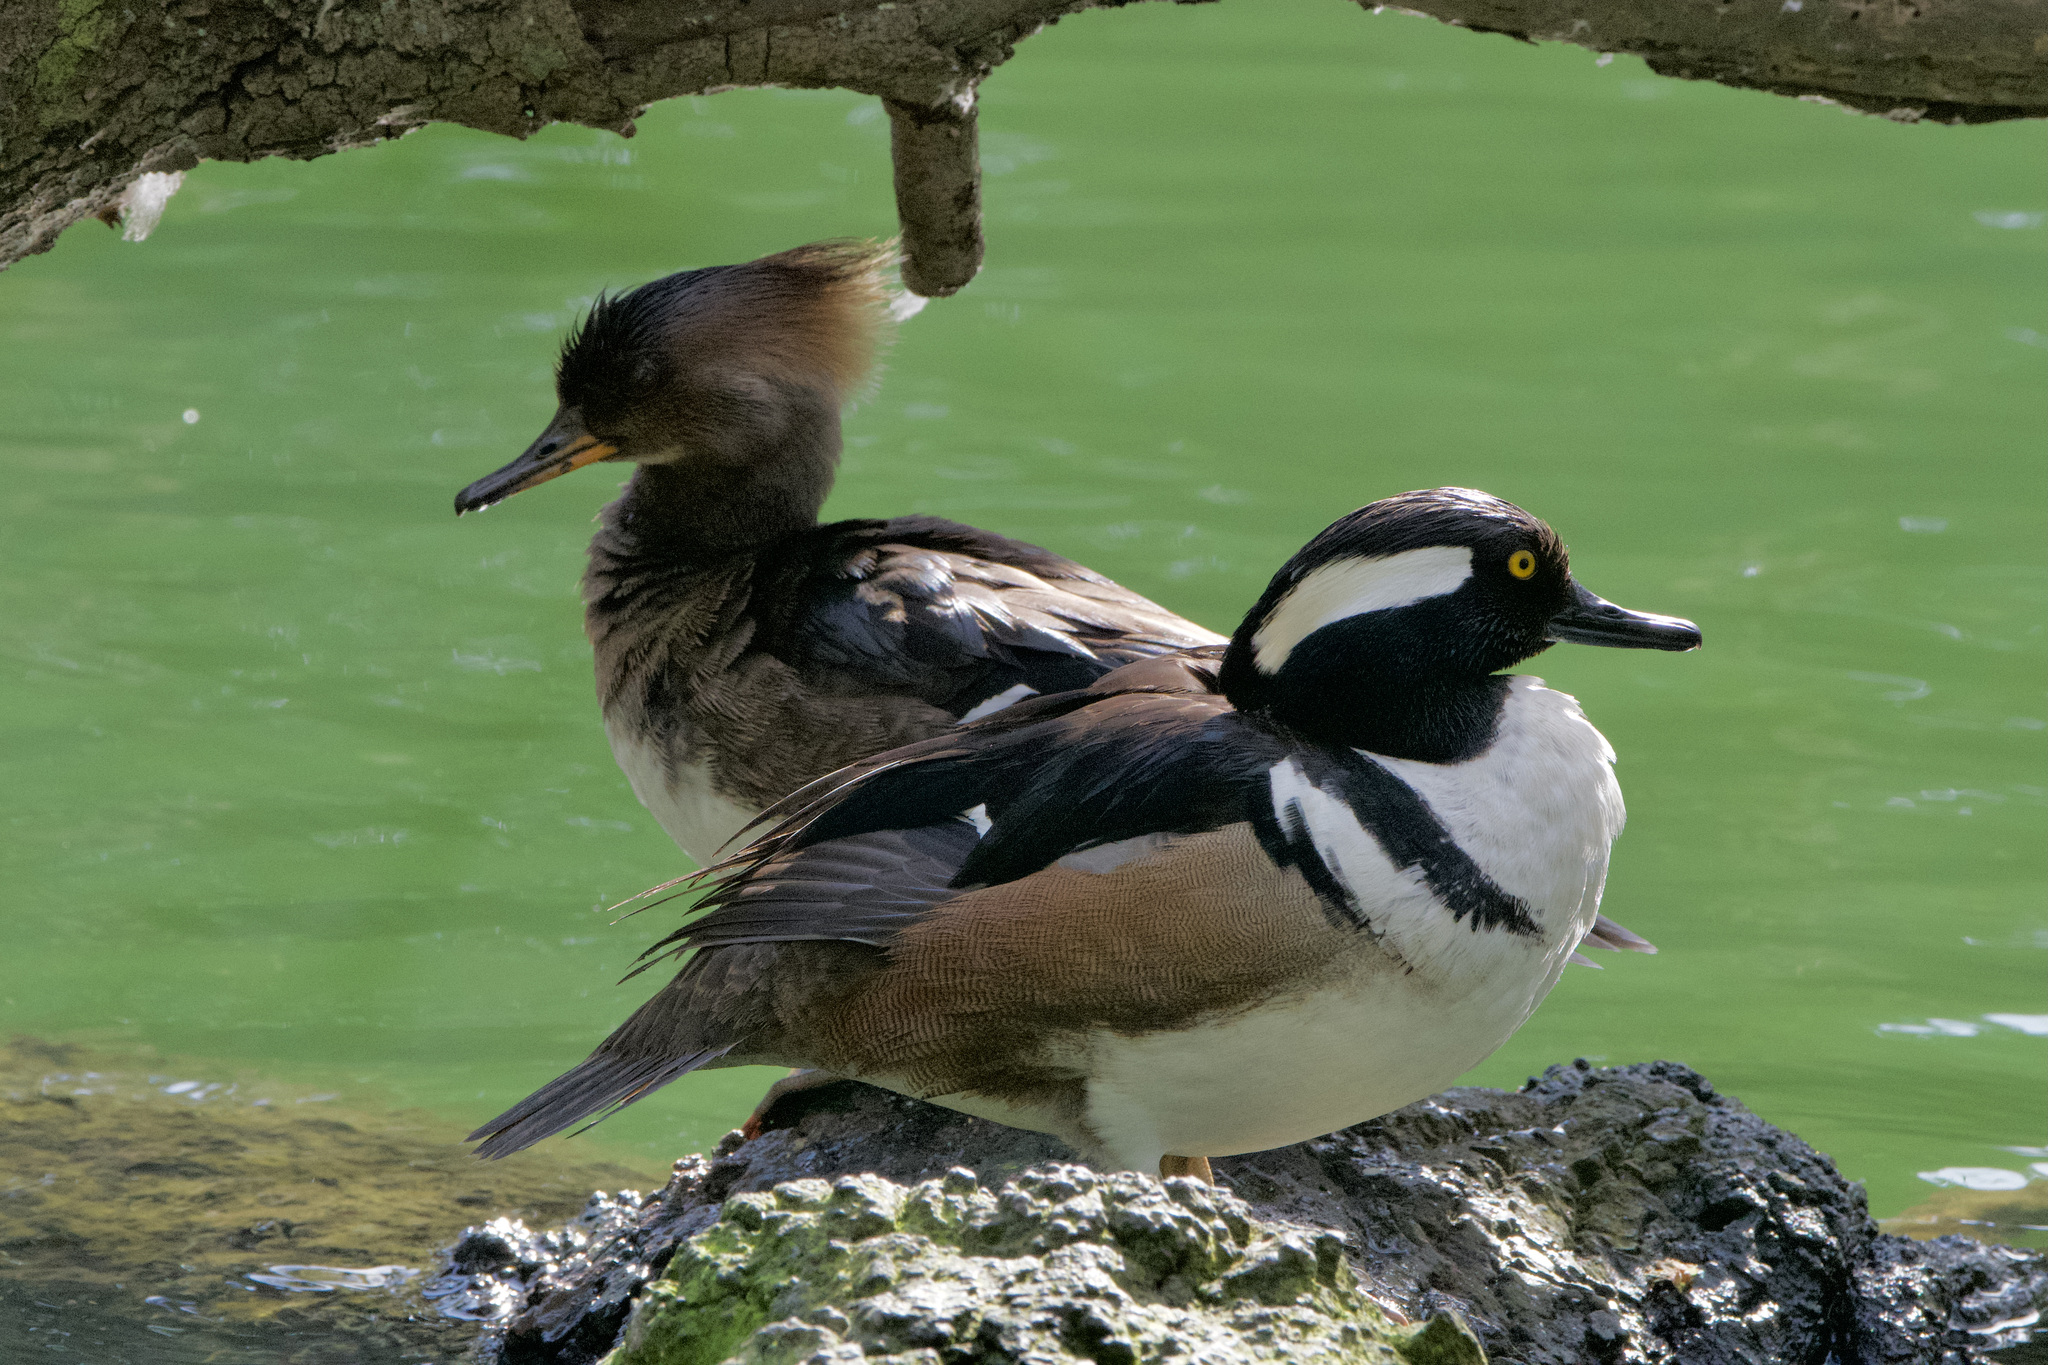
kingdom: Animalia
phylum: Chordata
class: Aves
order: Anseriformes
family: Anatidae
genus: Lophodytes
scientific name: Lophodytes cucullatus
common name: Hooded merganser
